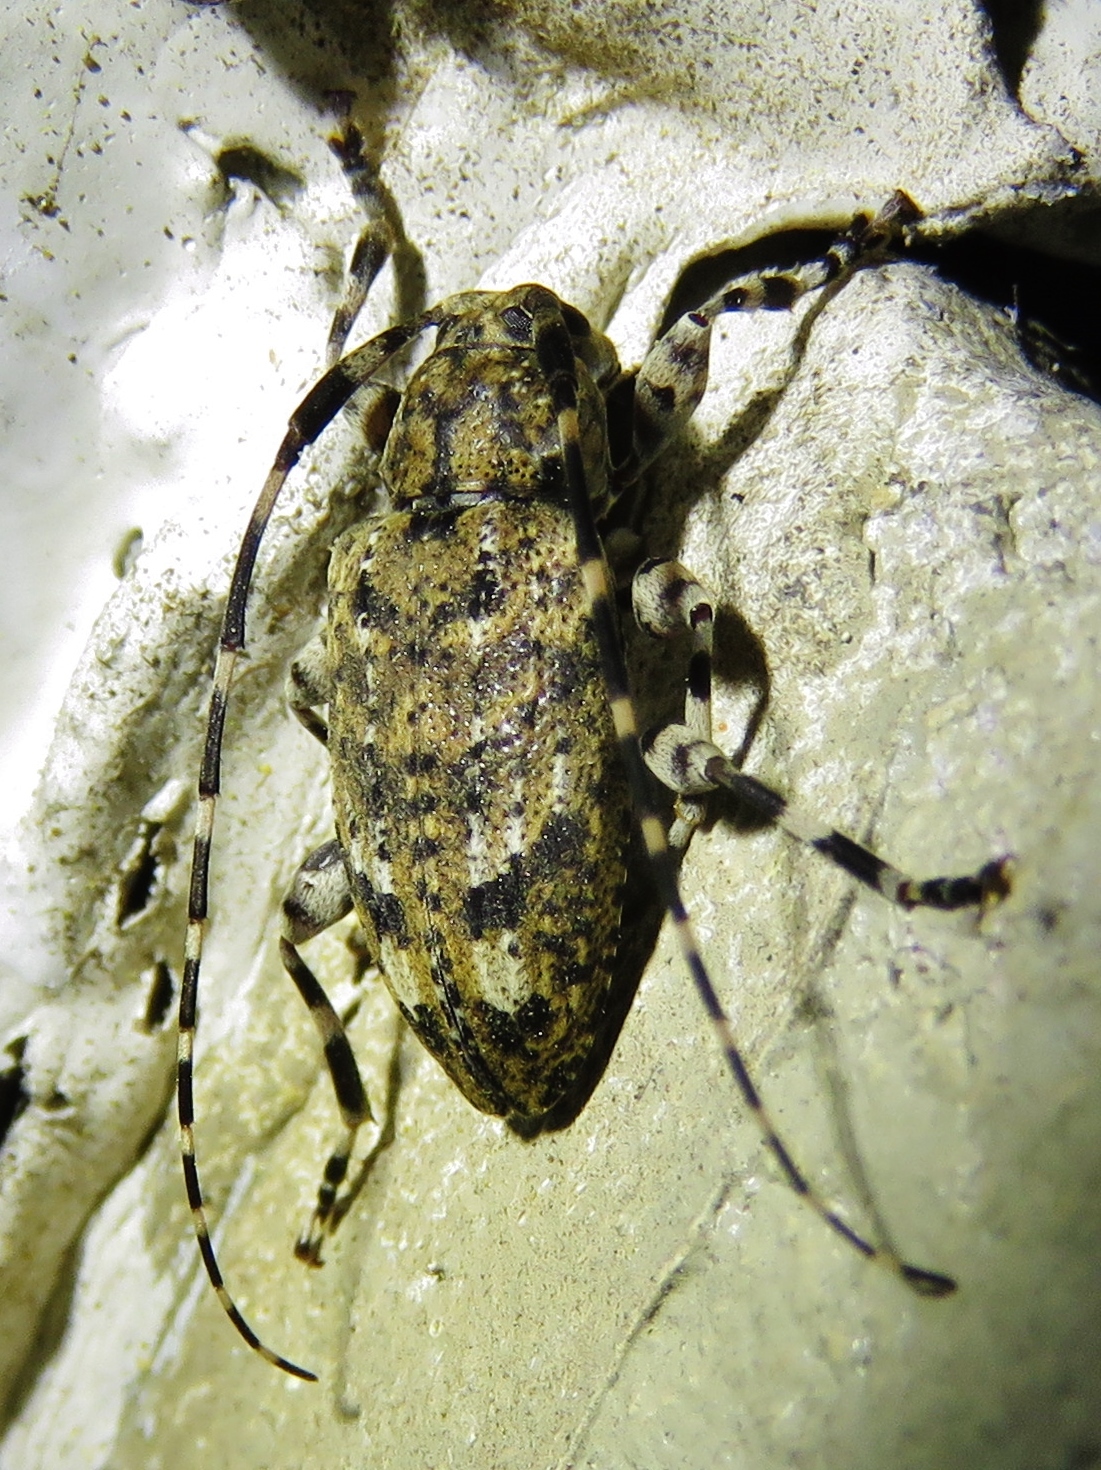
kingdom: Animalia
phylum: Arthropoda
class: Insecta
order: Coleoptera
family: Cerambycidae
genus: Astyleiopus
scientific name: Astyleiopus variegatus
